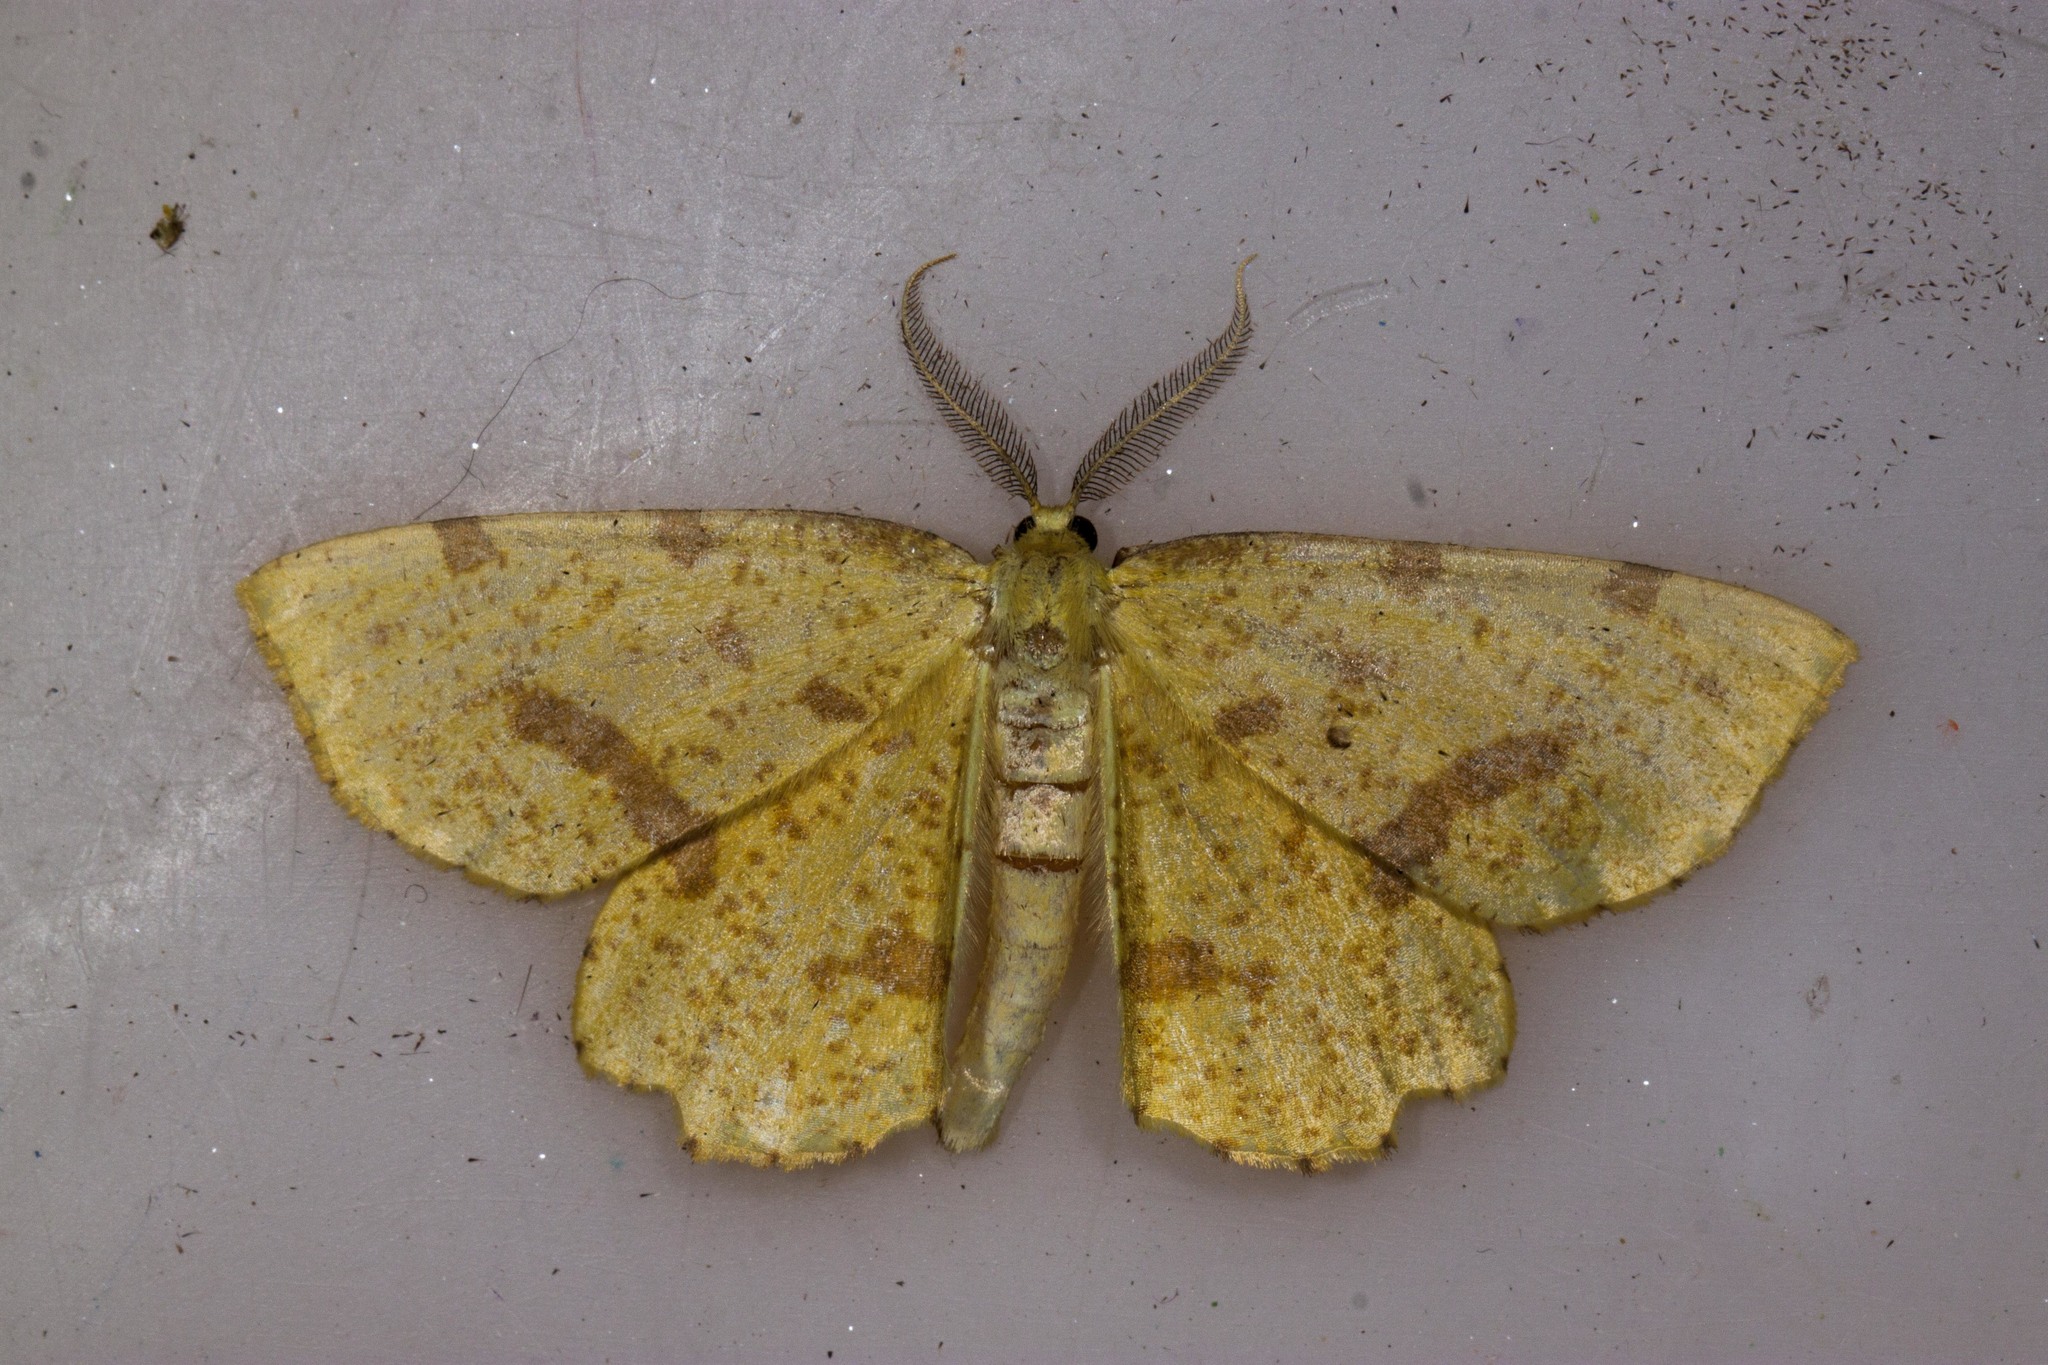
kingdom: Animalia
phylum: Arthropoda
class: Insecta
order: Lepidoptera
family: Geometridae
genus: Xanthotype
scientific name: Xanthotype
